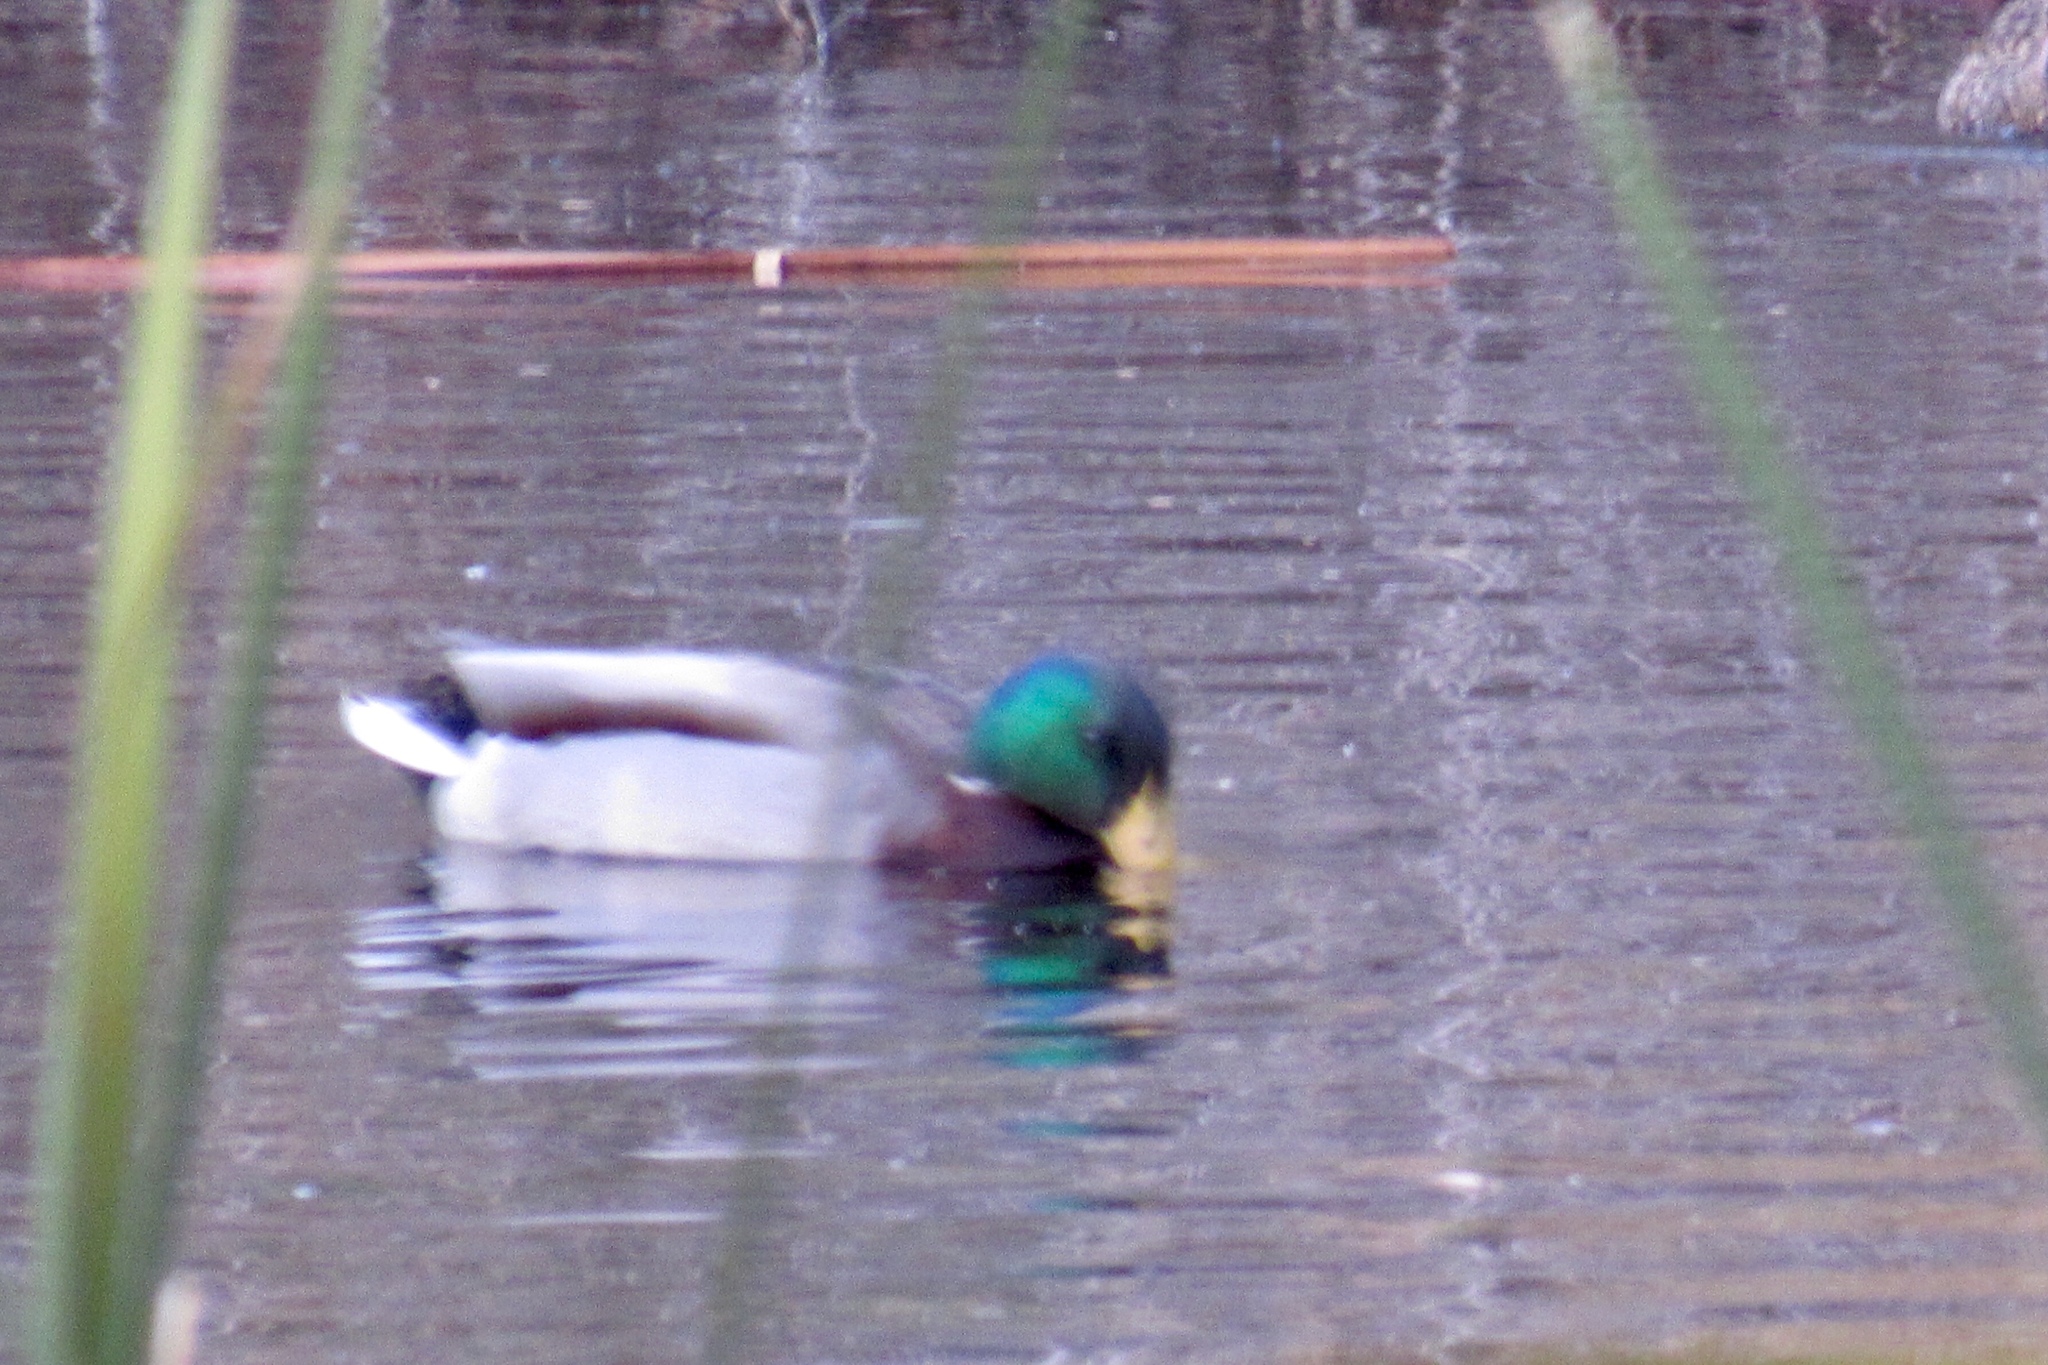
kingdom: Animalia
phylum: Chordata
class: Aves
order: Anseriformes
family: Anatidae
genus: Anas
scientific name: Anas platyrhynchos
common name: Mallard
